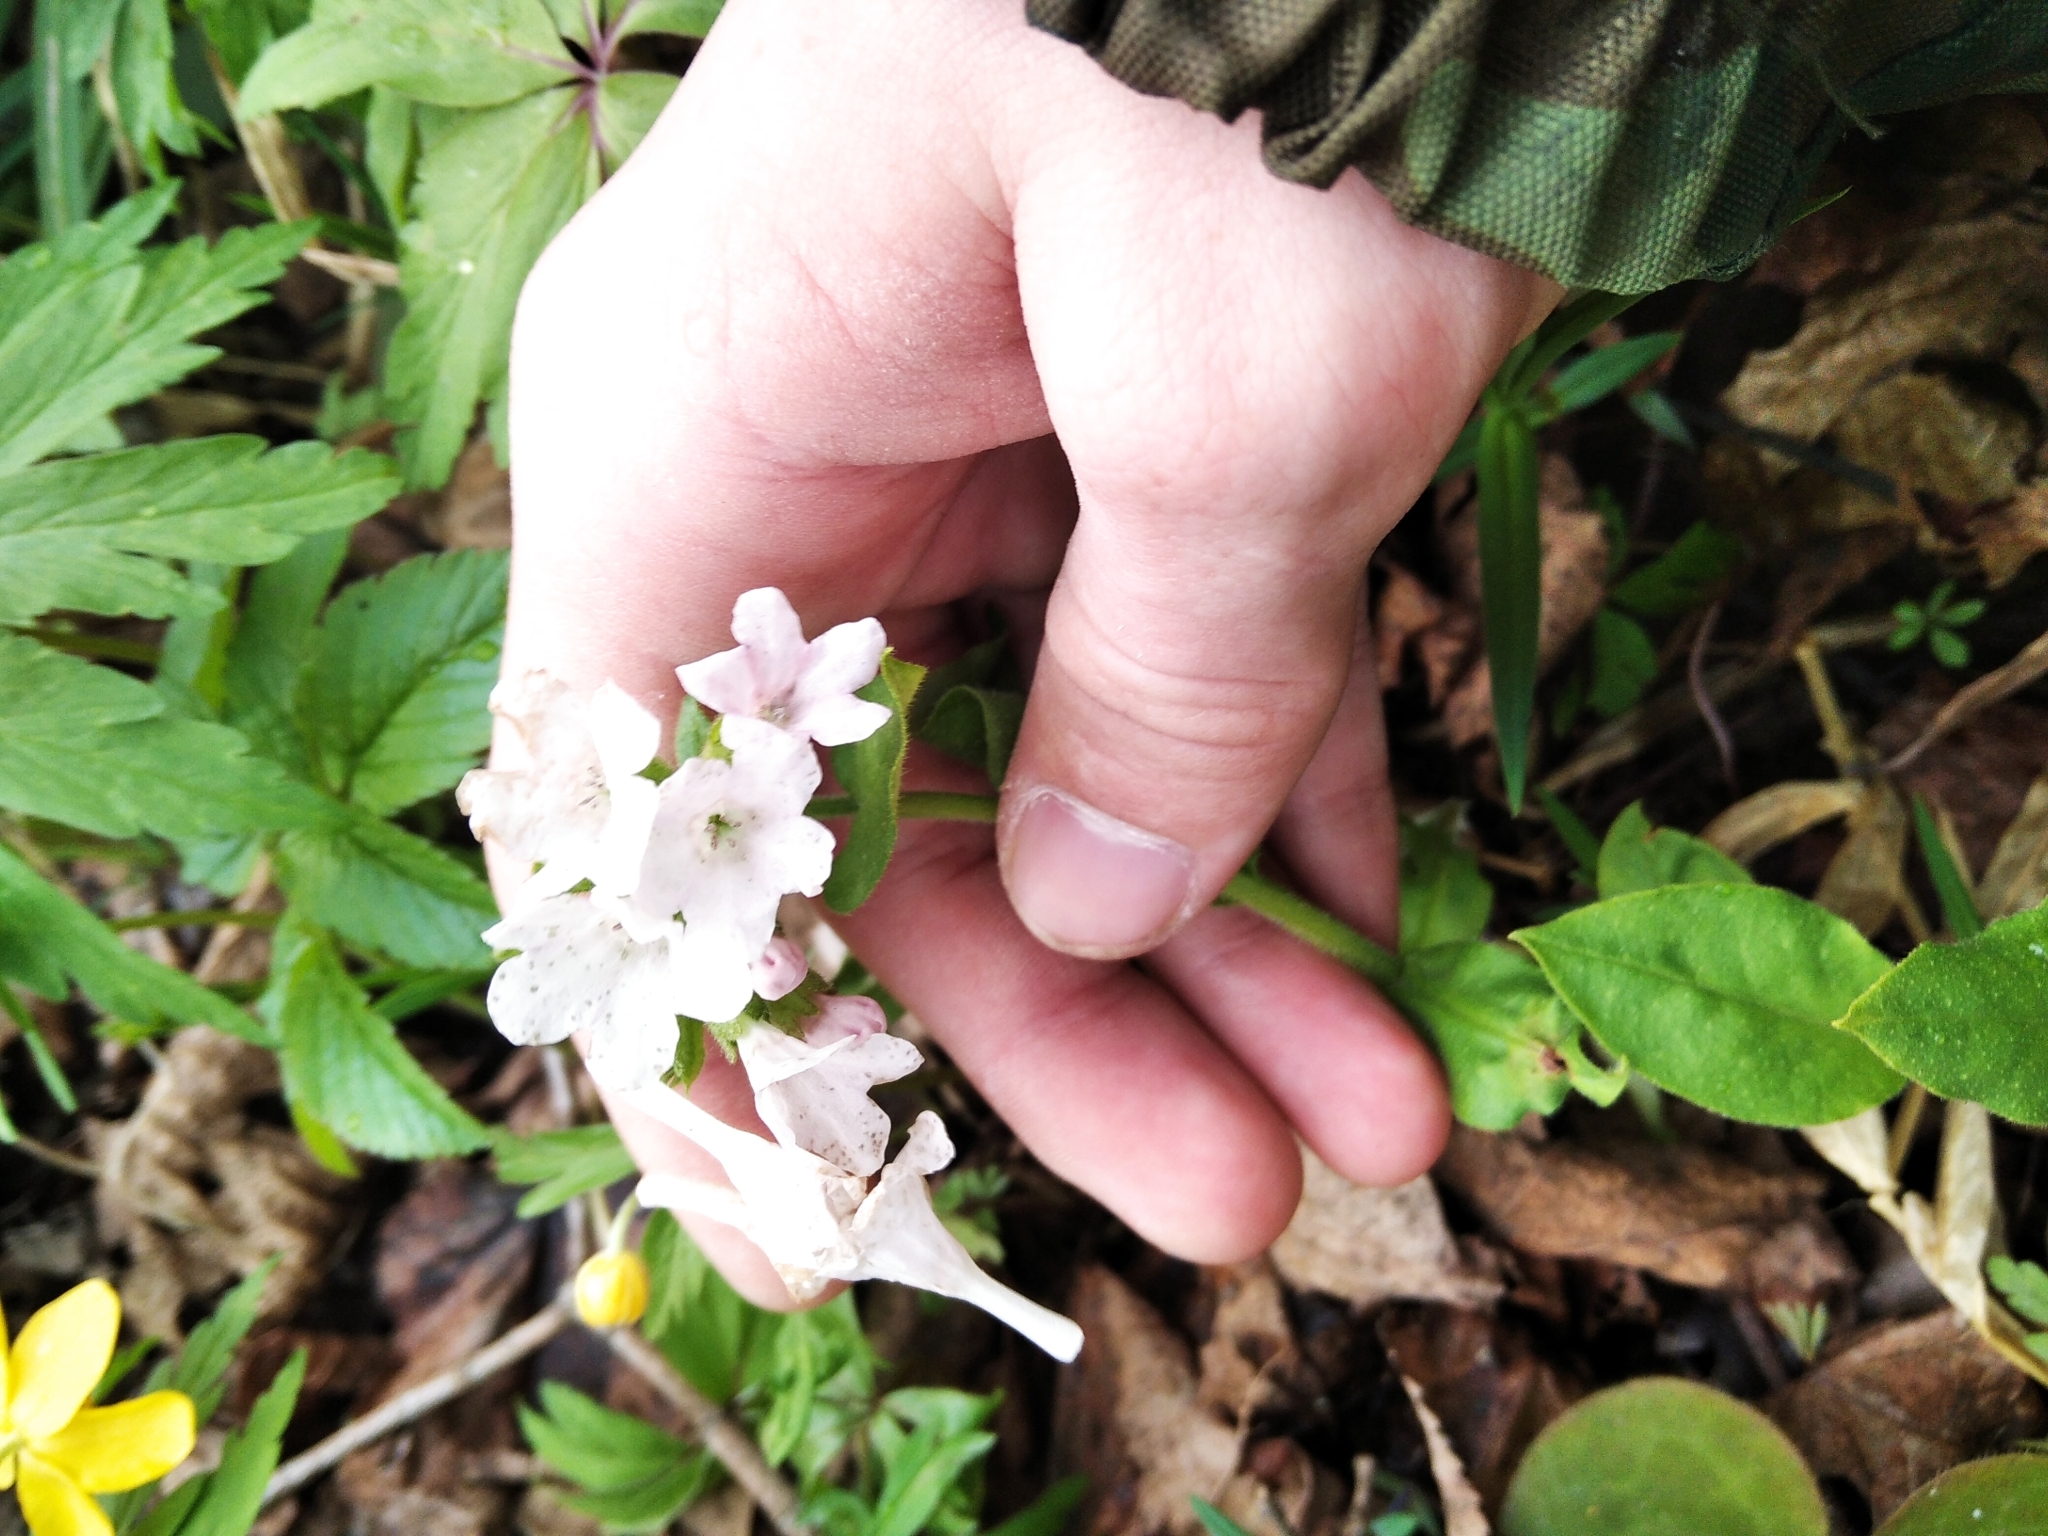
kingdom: Plantae
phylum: Tracheophyta
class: Magnoliopsida
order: Boraginales
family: Boraginaceae
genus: Pulmonaria
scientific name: Pulmonaria obscura
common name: Suffolk lungwort
